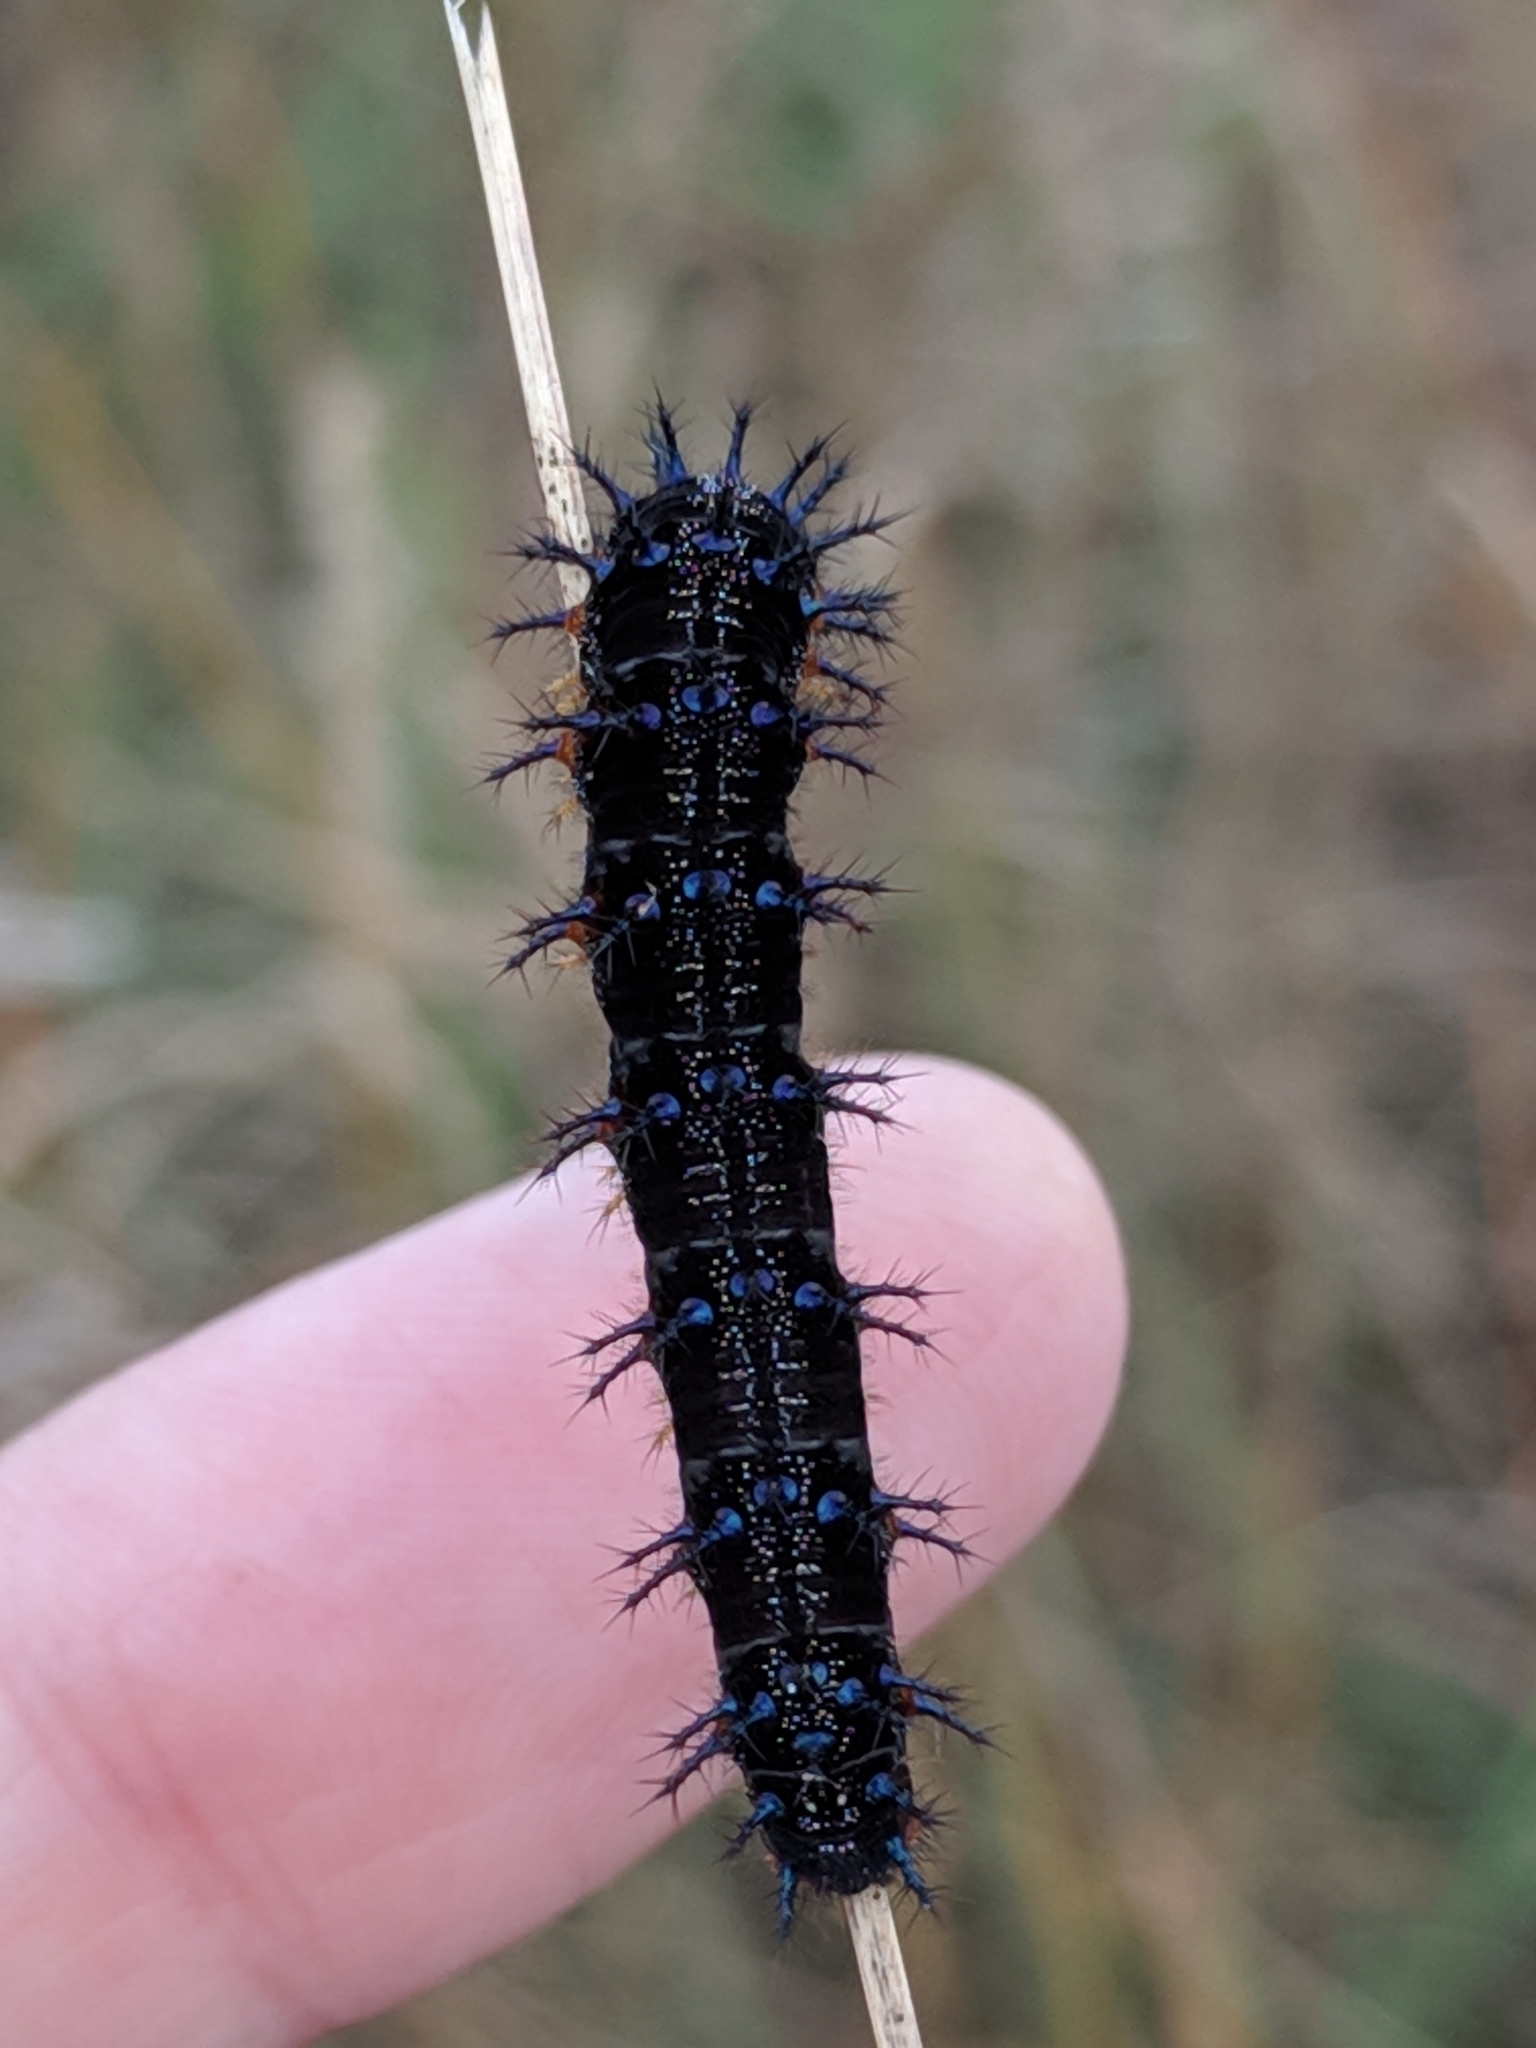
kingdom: Animalia
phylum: Arthropoda
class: Insecta
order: Lepidoptera
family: Nymphalidae
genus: Junonia
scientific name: Junonia stemosa
